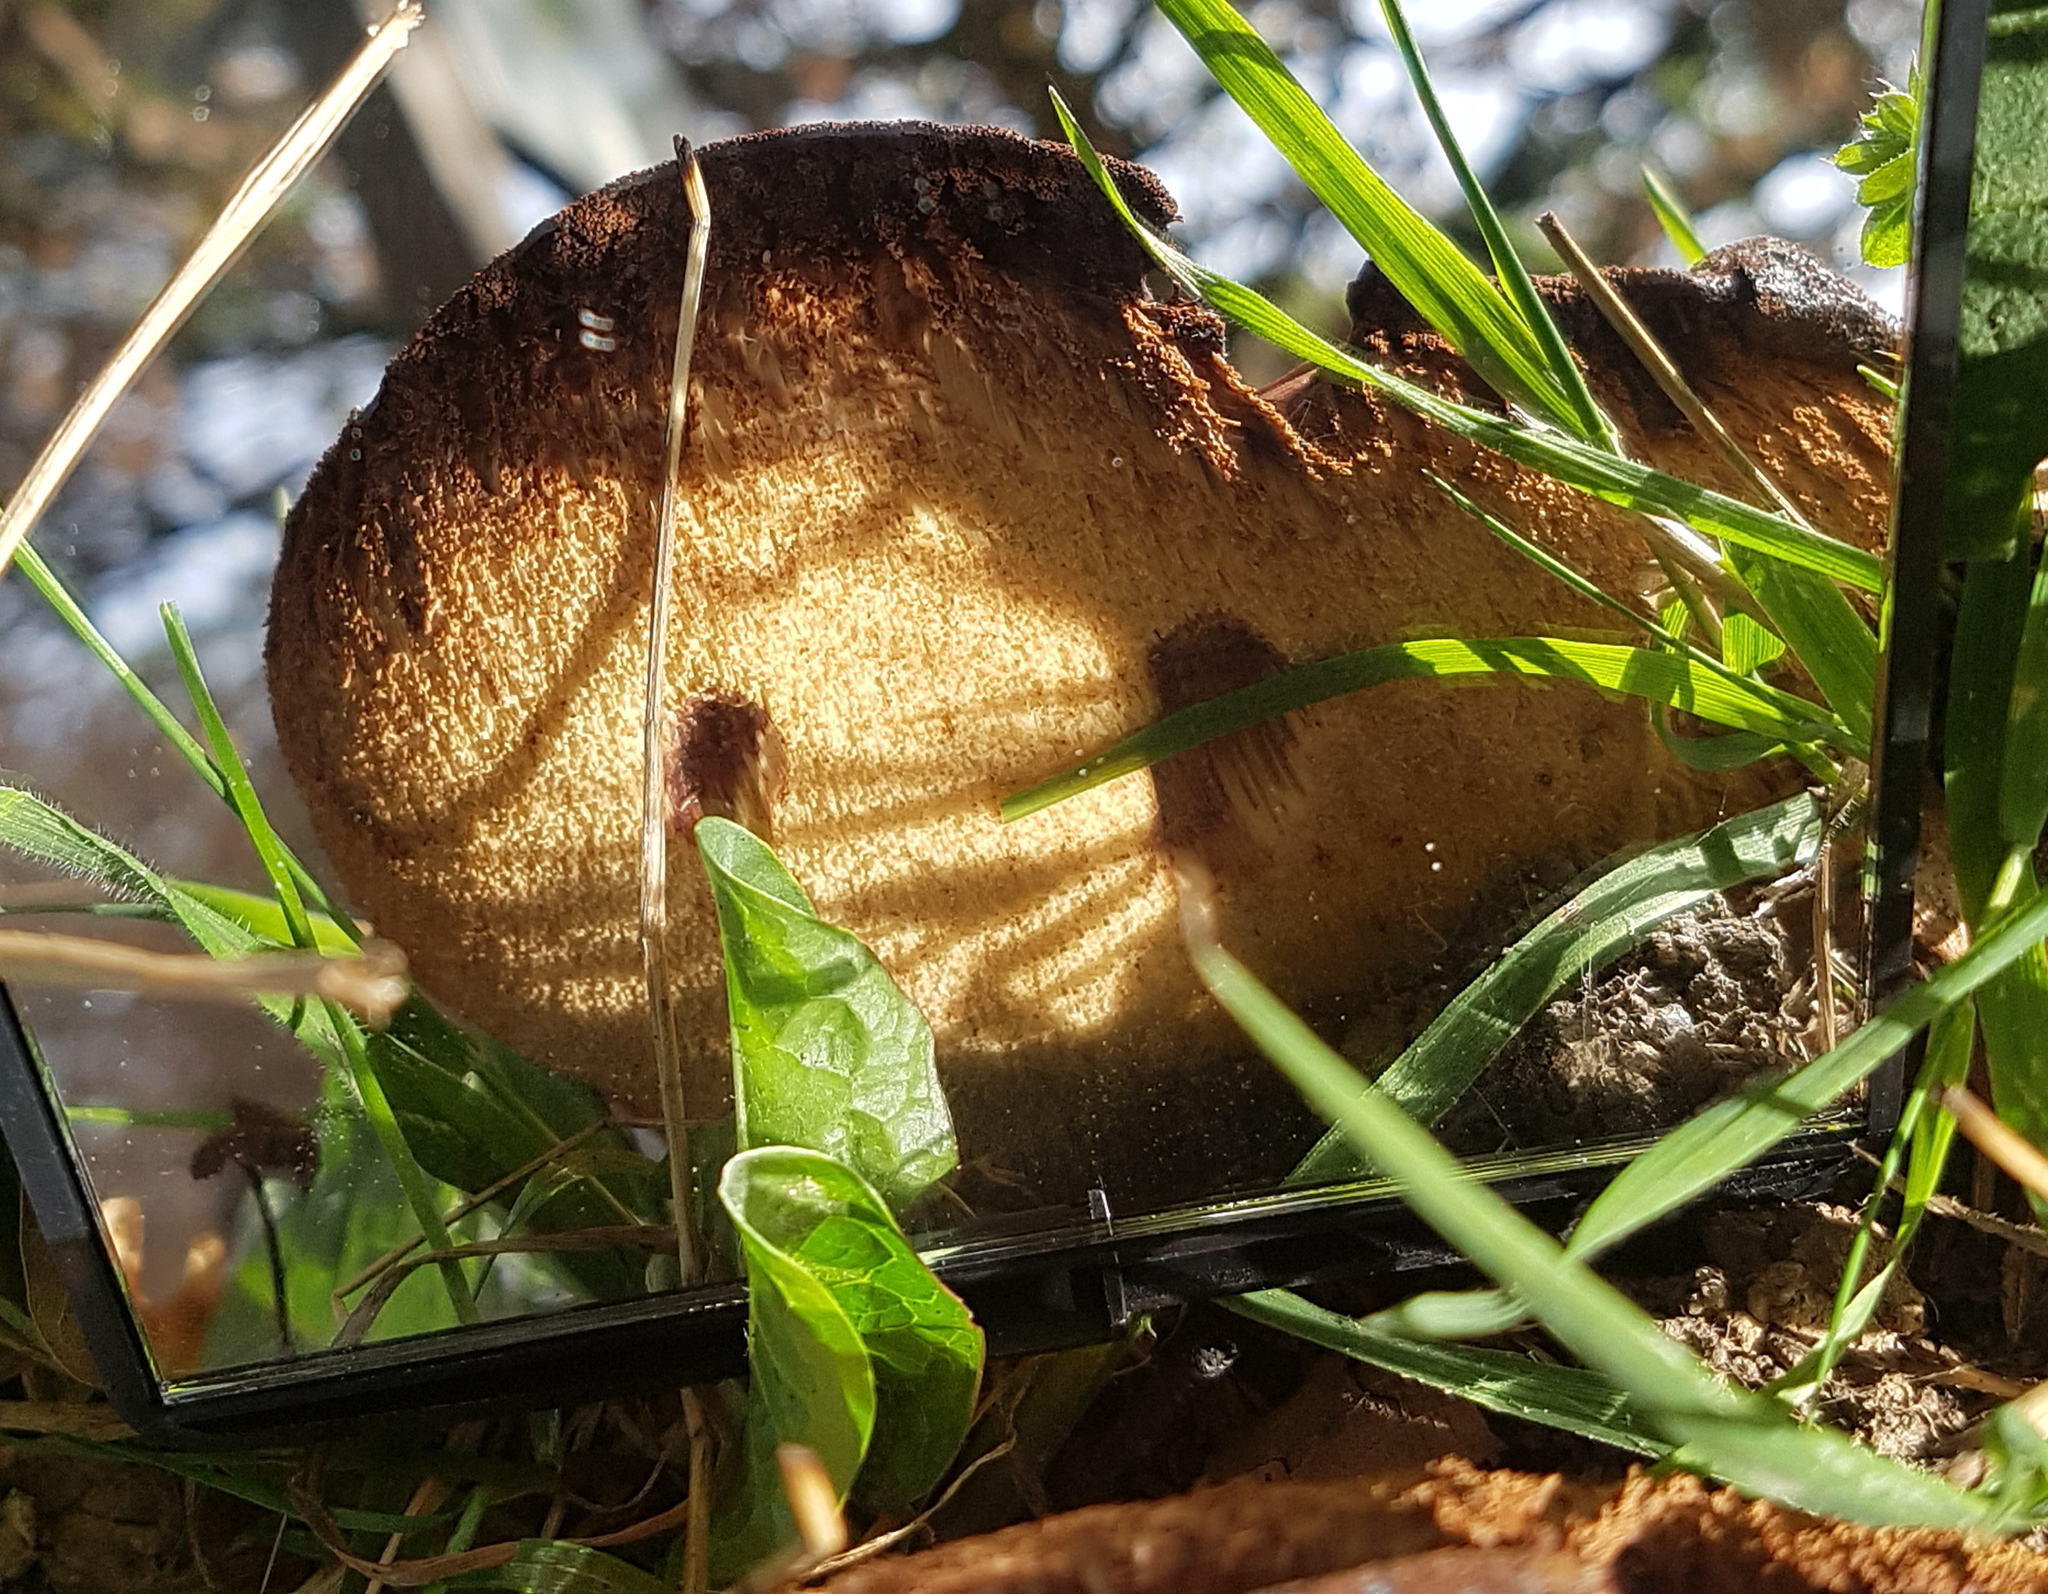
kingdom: Fungi
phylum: Basidiomycota
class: Agaricomycetes
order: Agaricales
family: Fistulinaceae
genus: Fistulina
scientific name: Fistulina hepatica
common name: Beef-steak fungus
